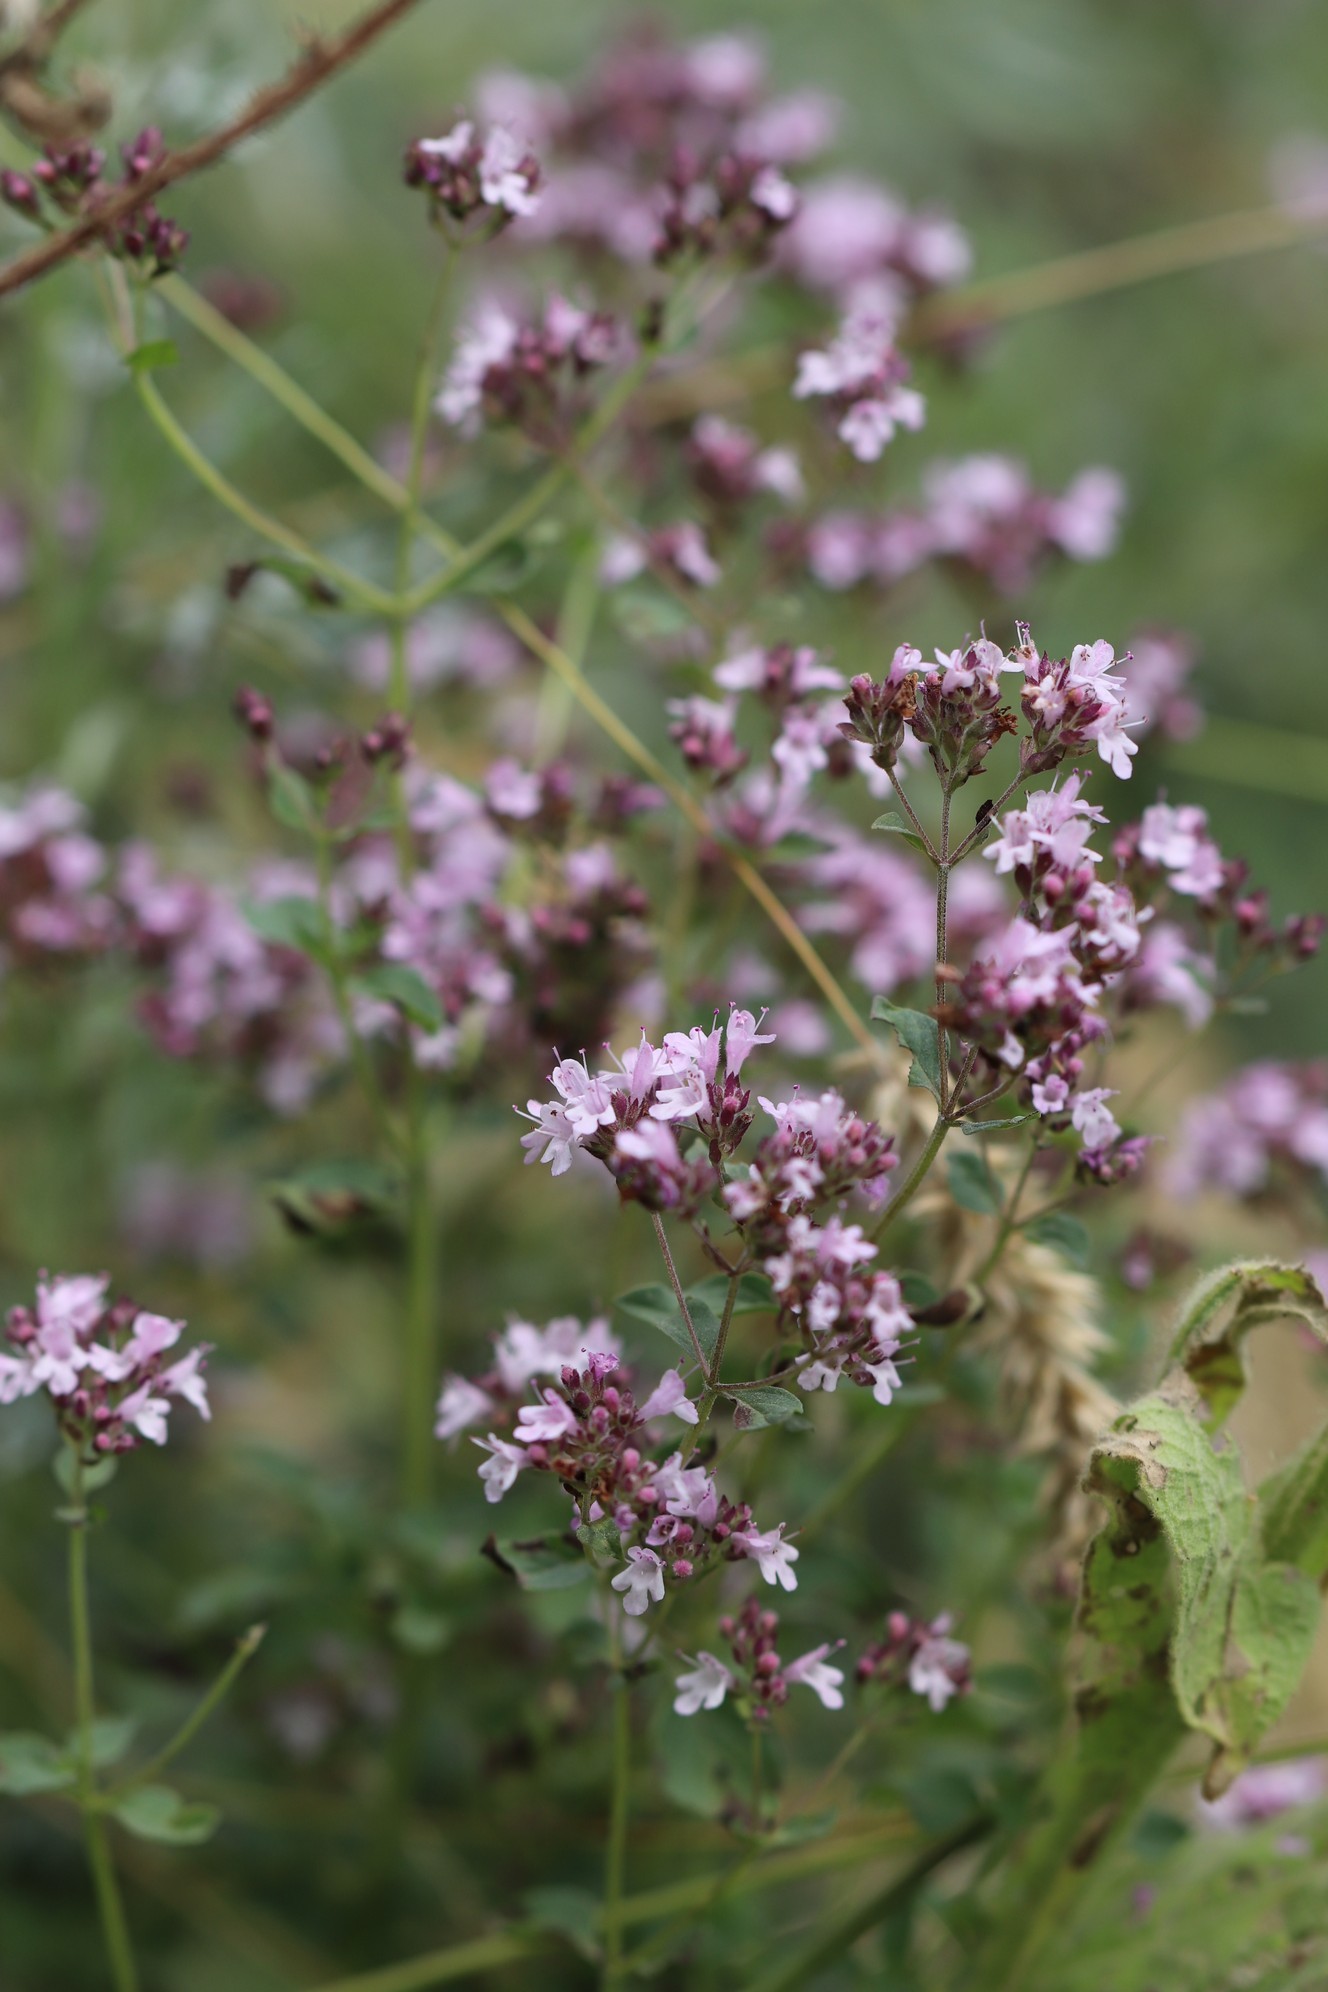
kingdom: Plantae
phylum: Tracheophyta
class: Magnoliopsida
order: Lamiales
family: Lamiaceae
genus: Origanum
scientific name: Origanum vulgare
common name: Wild marjoram
